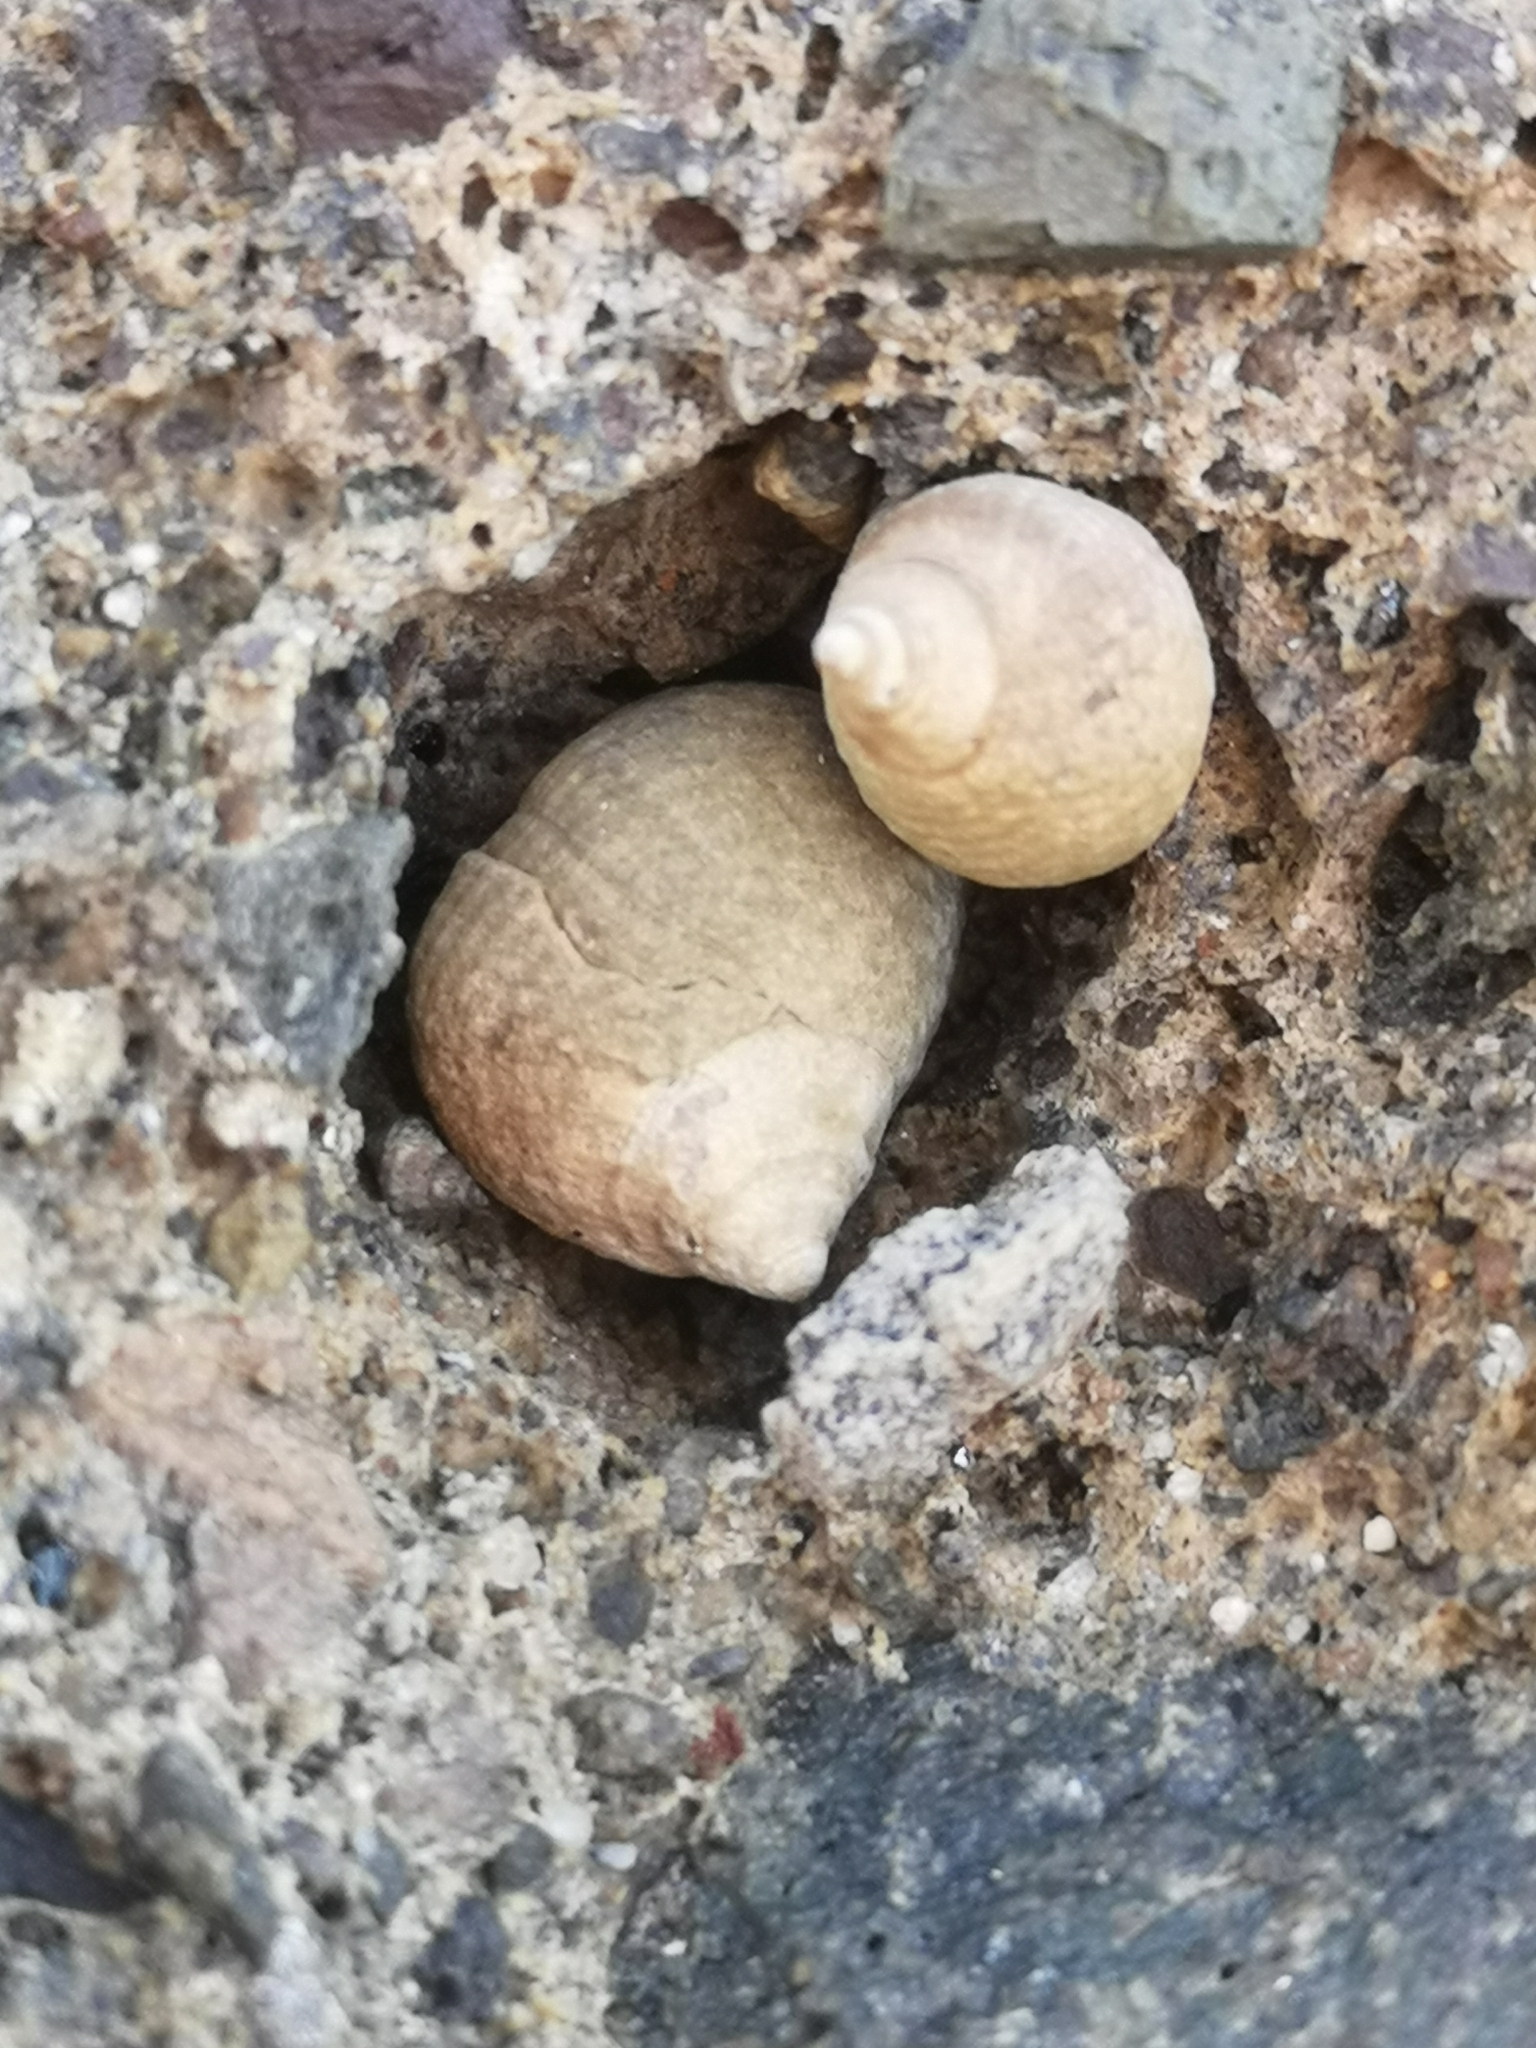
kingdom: Animalia
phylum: Mollusca
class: Gastropoda
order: Littorinimorpha
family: Littorinidae
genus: Tectarius
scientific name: Tectarius striatus
